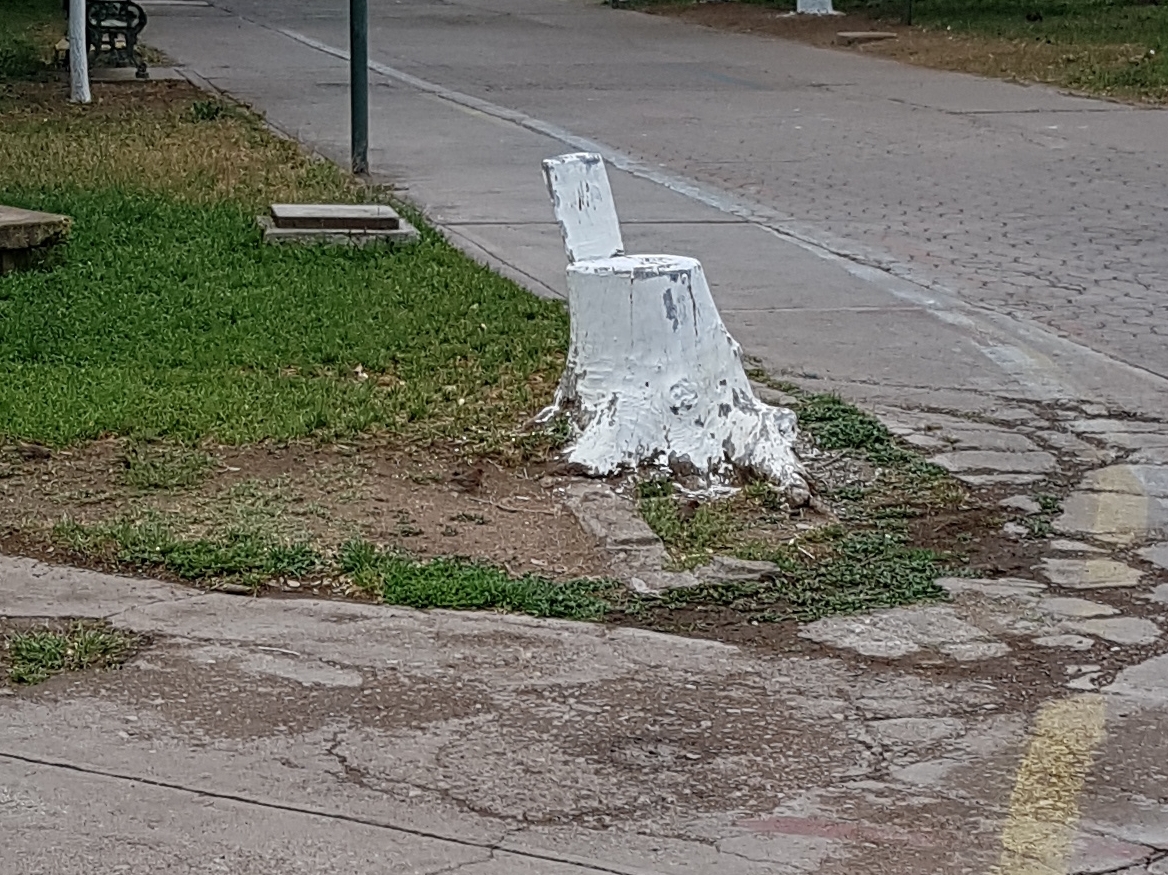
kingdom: Animalia
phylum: Chordata
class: Aves
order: Passeriformes
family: Fringillidae
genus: Haemorhous
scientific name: Haemorhous mexicanus
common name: House finch
